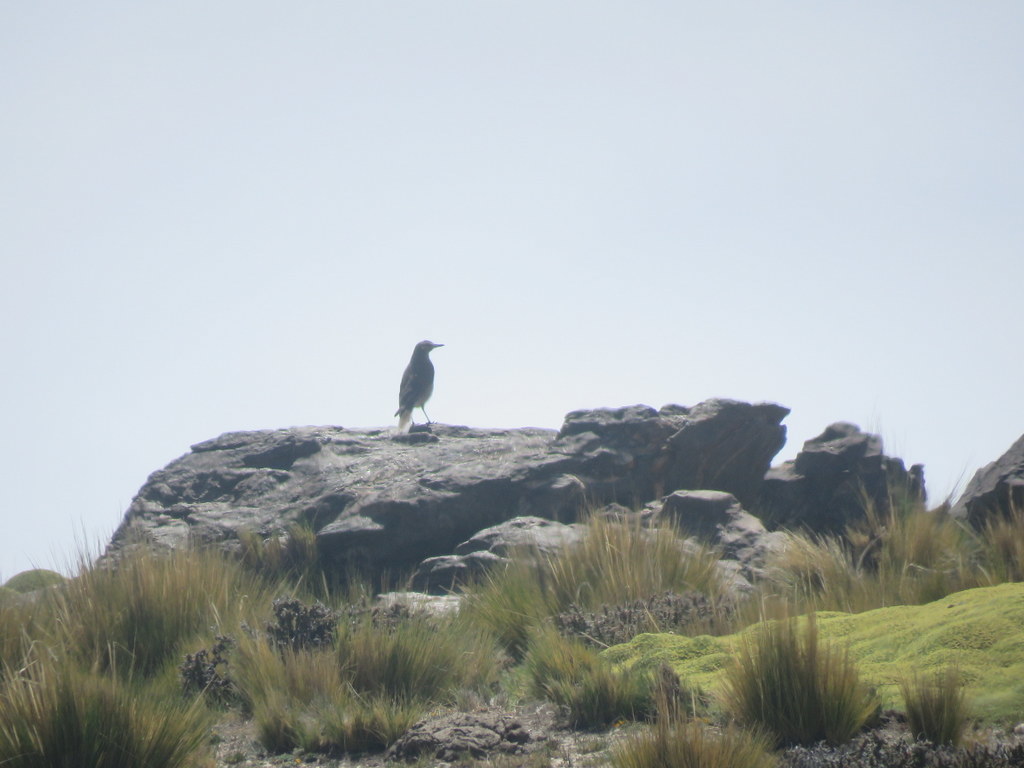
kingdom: Animalia
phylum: Chordata
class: Aves
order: Passeriformes
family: Tyrannidae
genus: Agriornis
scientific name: Agriornis montanus
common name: Black-billed shrike-tyrant
